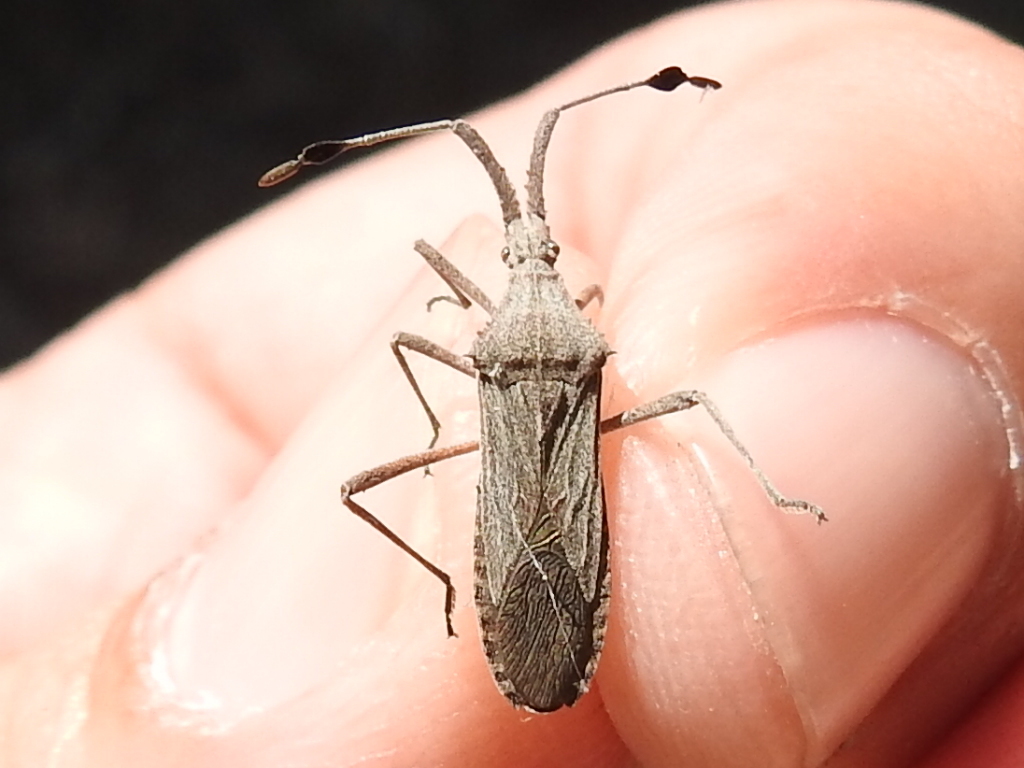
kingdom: Animalia
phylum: Arthropoda
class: Insecta
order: Hemiptera
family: Coreidae
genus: Chariesterus
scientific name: Chariesterus antennator
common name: Flat horned coreid
